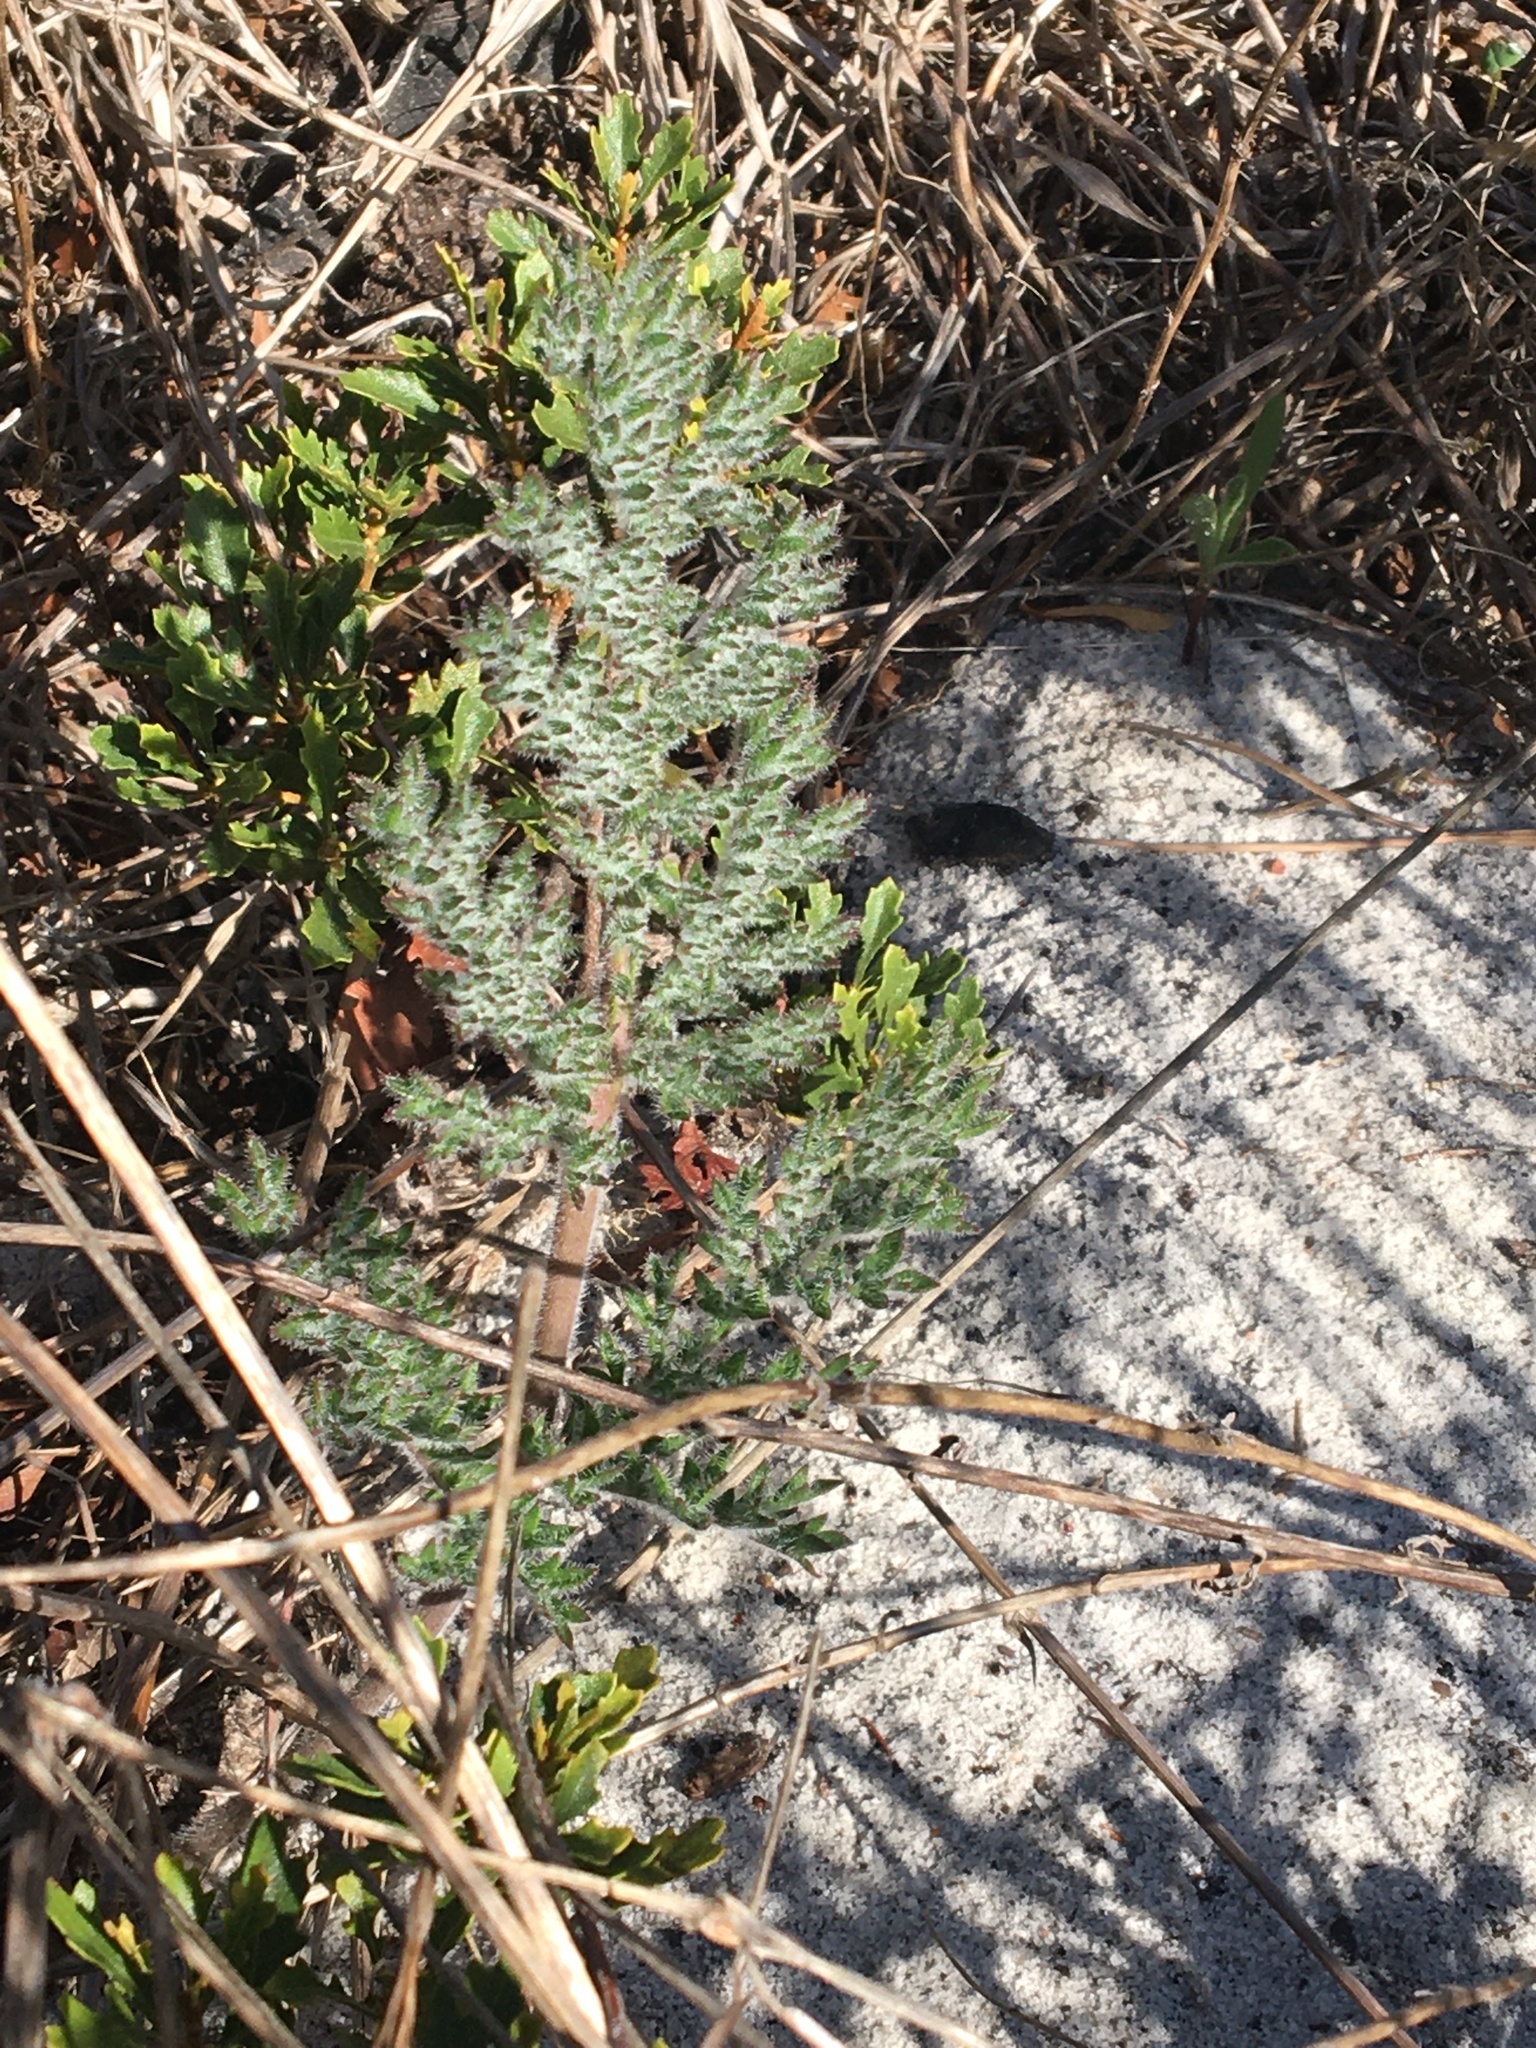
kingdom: Plantae
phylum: Tracheophyta
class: Magnoliopsida
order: Geraniales
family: Geraniaceae
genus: Pelargonium
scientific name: Pelargonium triste
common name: Night-scent pelargonium
